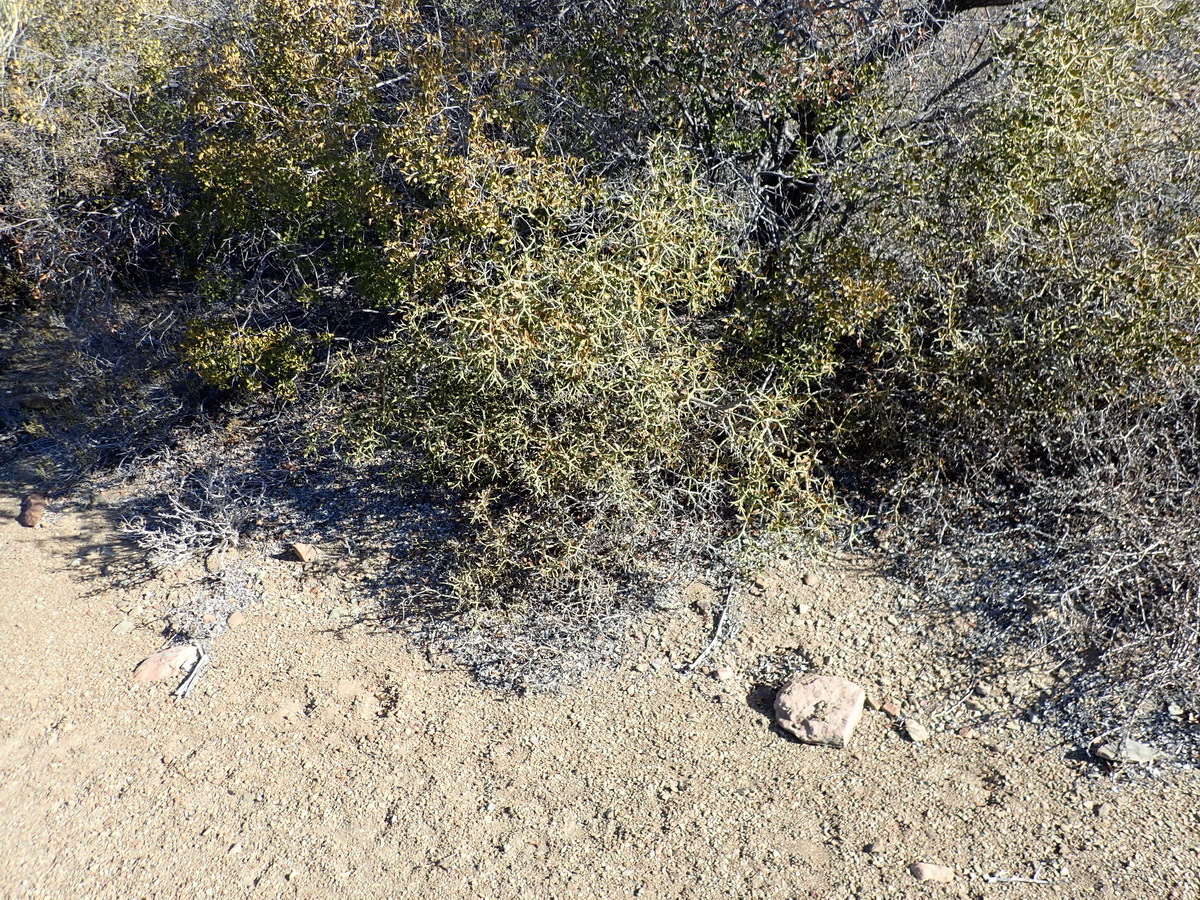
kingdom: Plantae
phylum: Tracheophyta
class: Magnoliopsida
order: Gentianales
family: Apocynaceae
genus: Carissa
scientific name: Carissa haematocarpa
